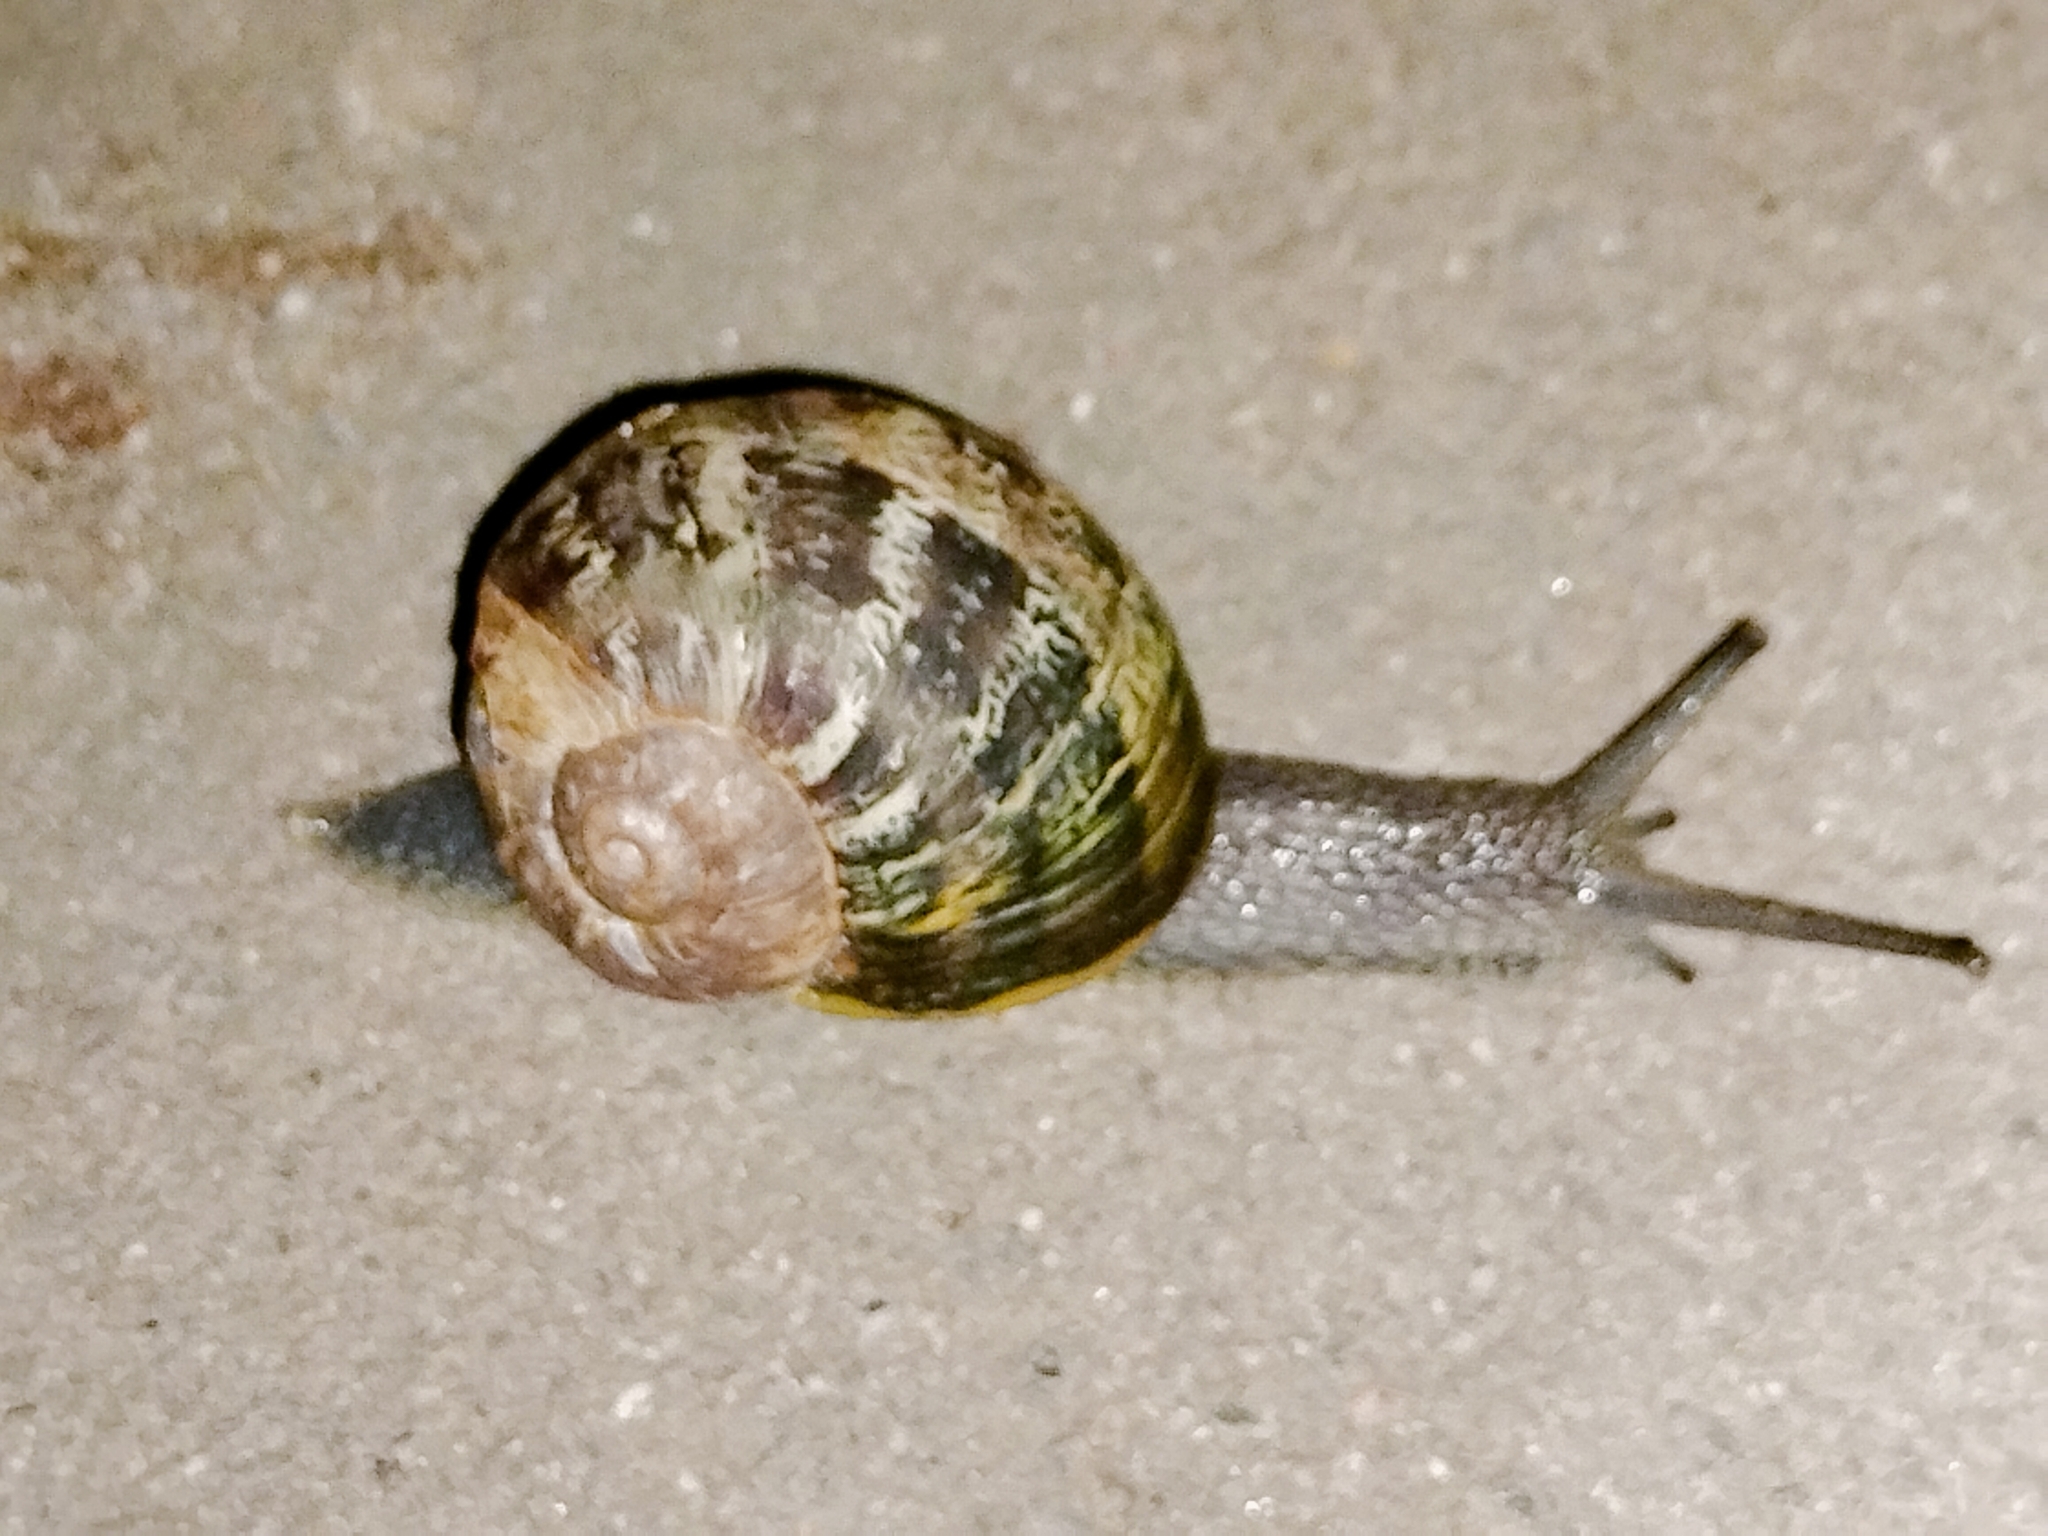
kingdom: Animalia
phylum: Mollusca
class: Gastropoda
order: Stylommatophora
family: Helicidae
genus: Cornu
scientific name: Cornu aspersum
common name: Brown garden snail
